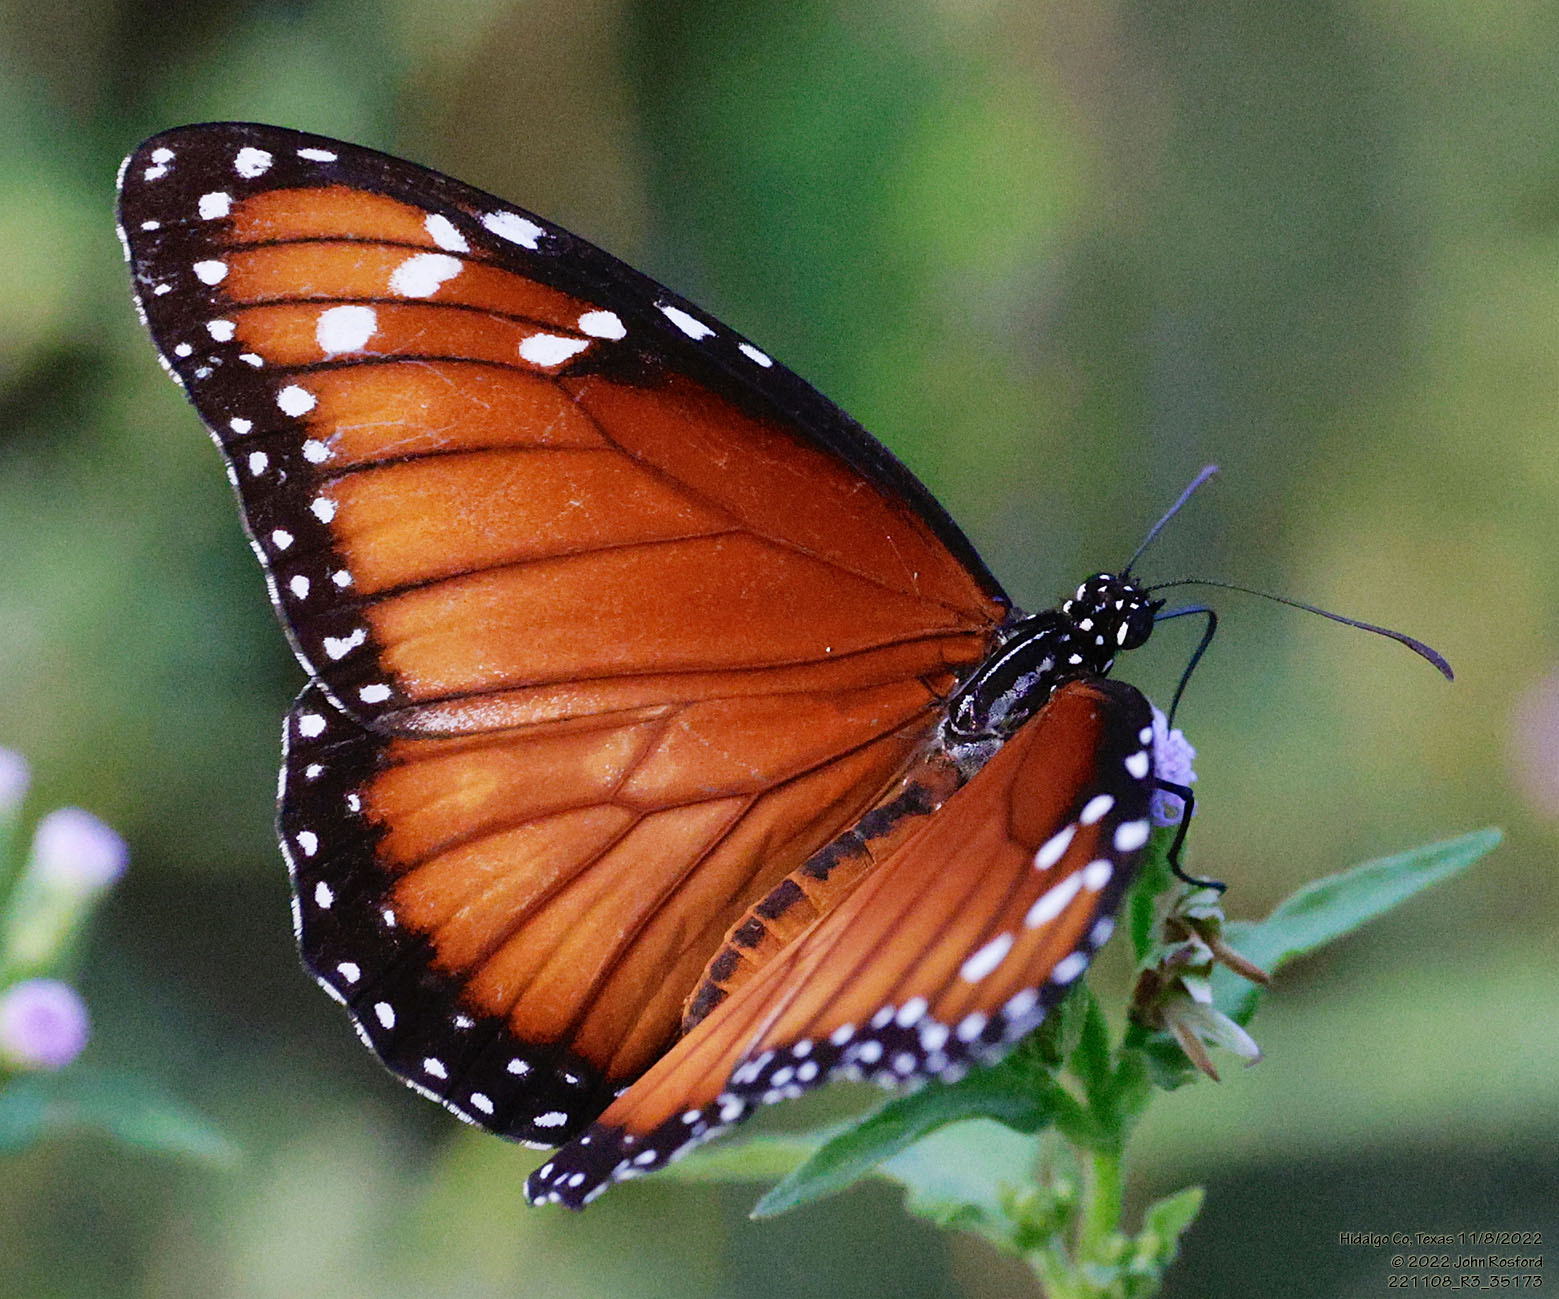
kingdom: Animalia
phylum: Arthropoda
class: Insecta
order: Lepidoptera
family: Nymphalidae
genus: Danaus
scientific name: Danaus eresimus
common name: Soldier
